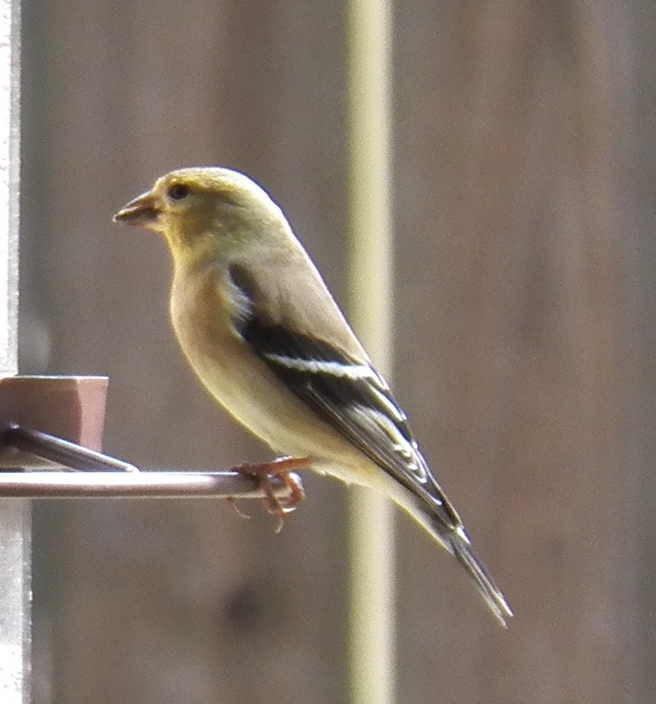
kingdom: Animalia
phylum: Chordata
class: Aves
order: Passeriformes
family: Fringillidae
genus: Spinus
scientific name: Spinus tristis
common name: American goldfinch
